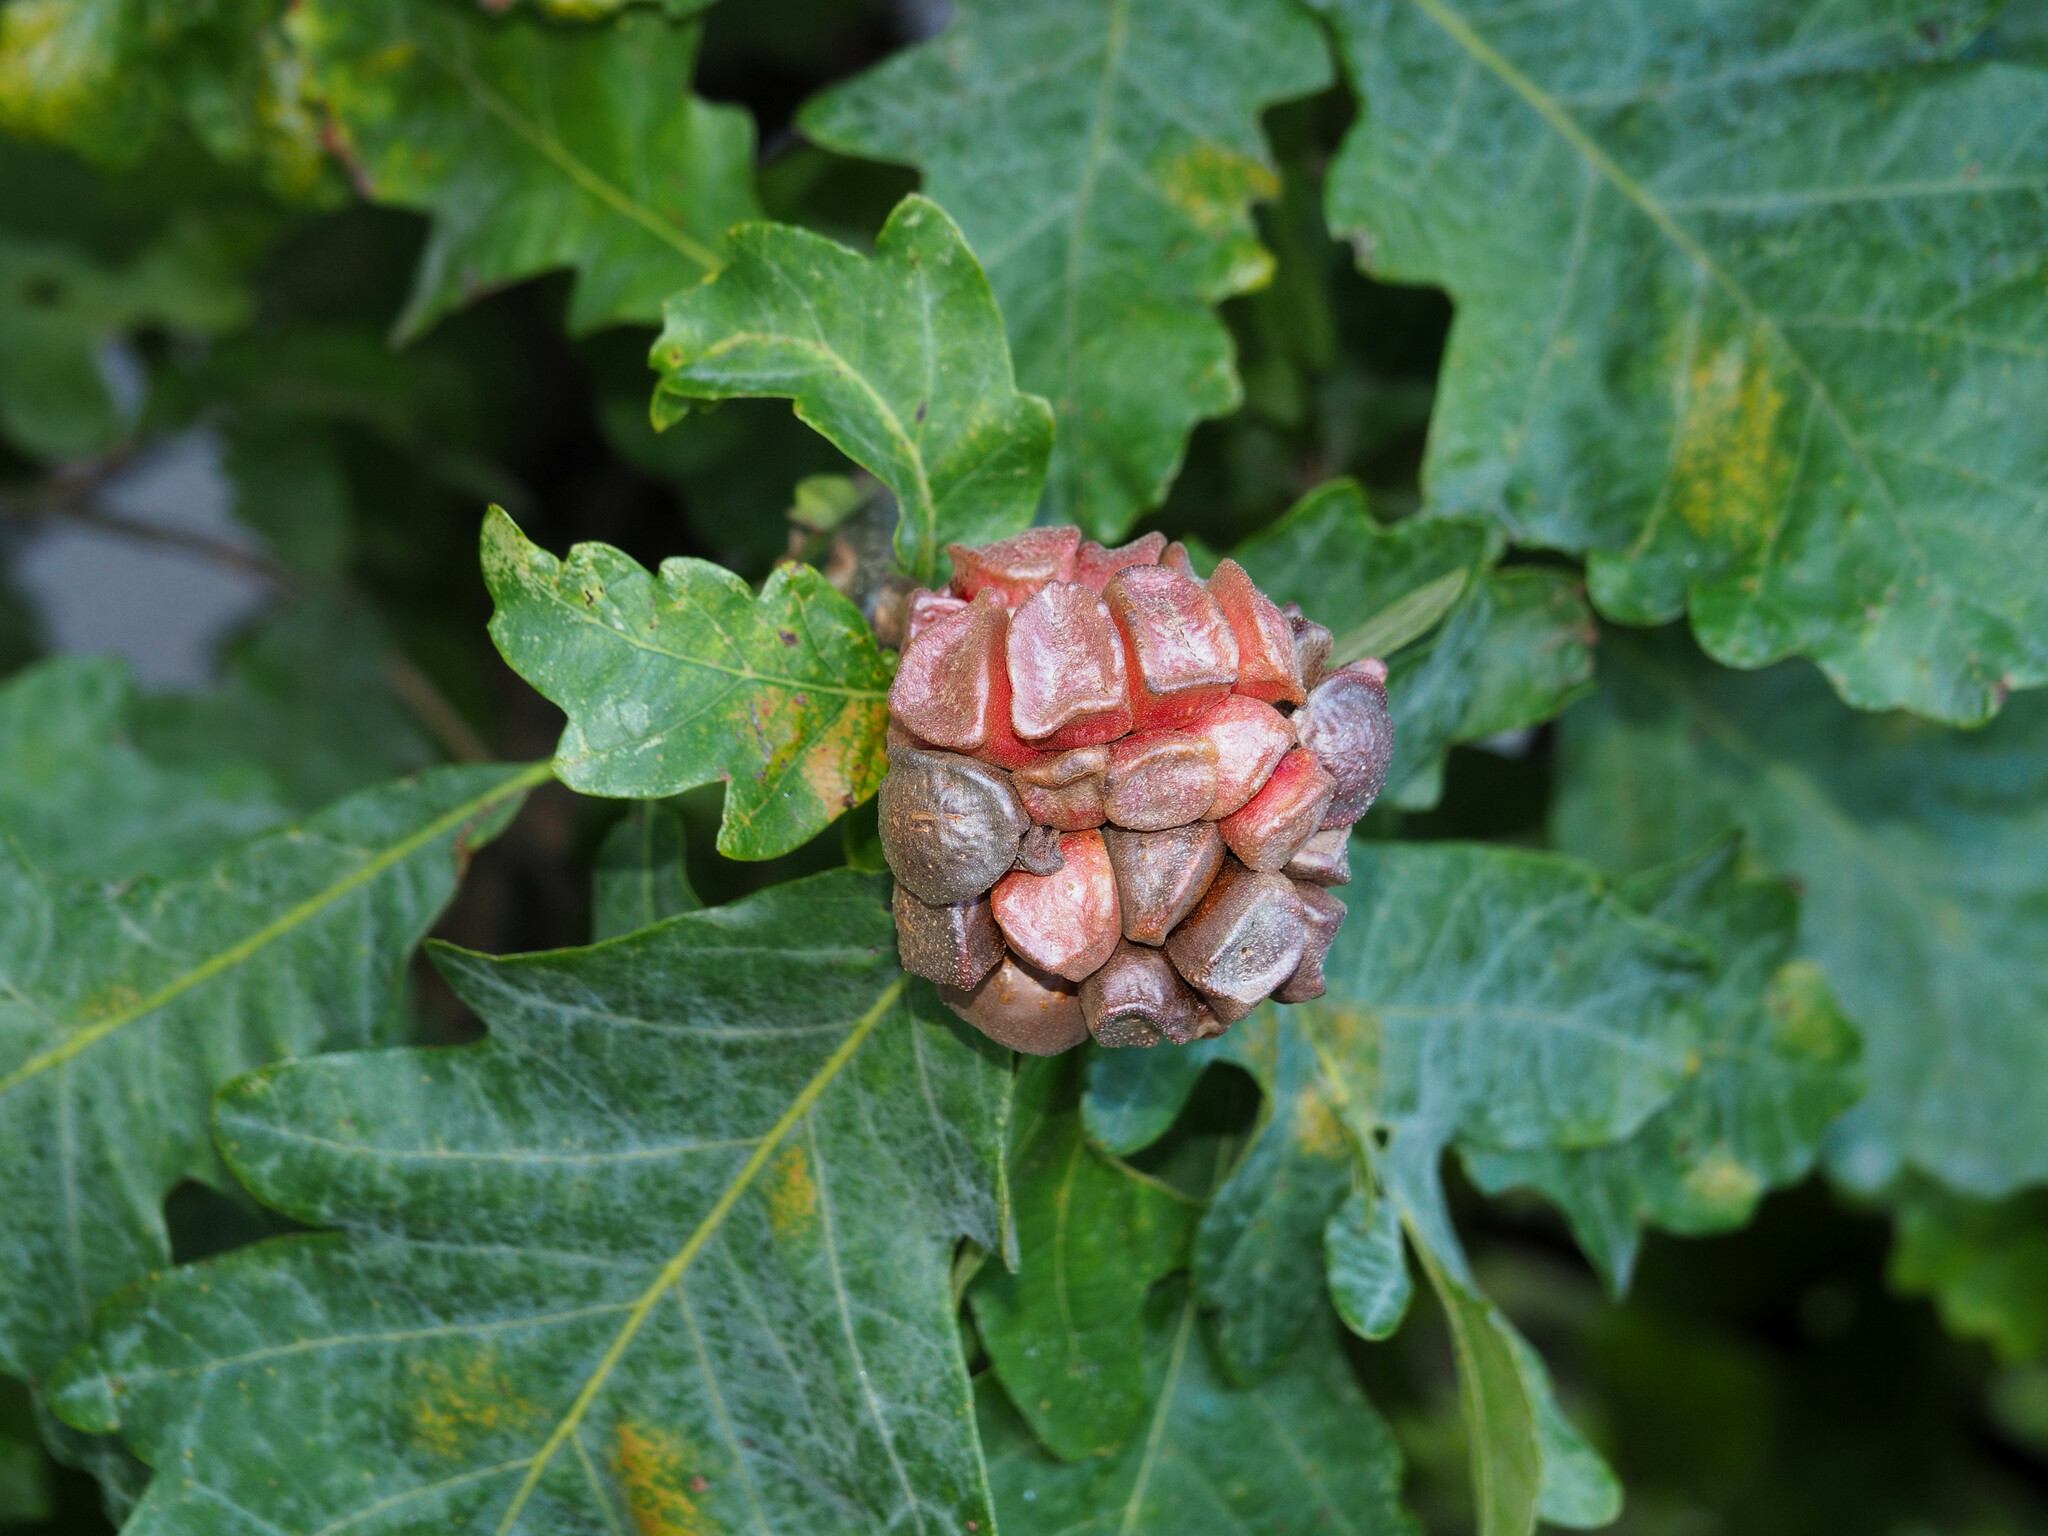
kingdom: Animalia
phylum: Arthropoda
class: Insecta
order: Hymenoptera
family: Cynipidae
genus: Andricus
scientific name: Andricus
